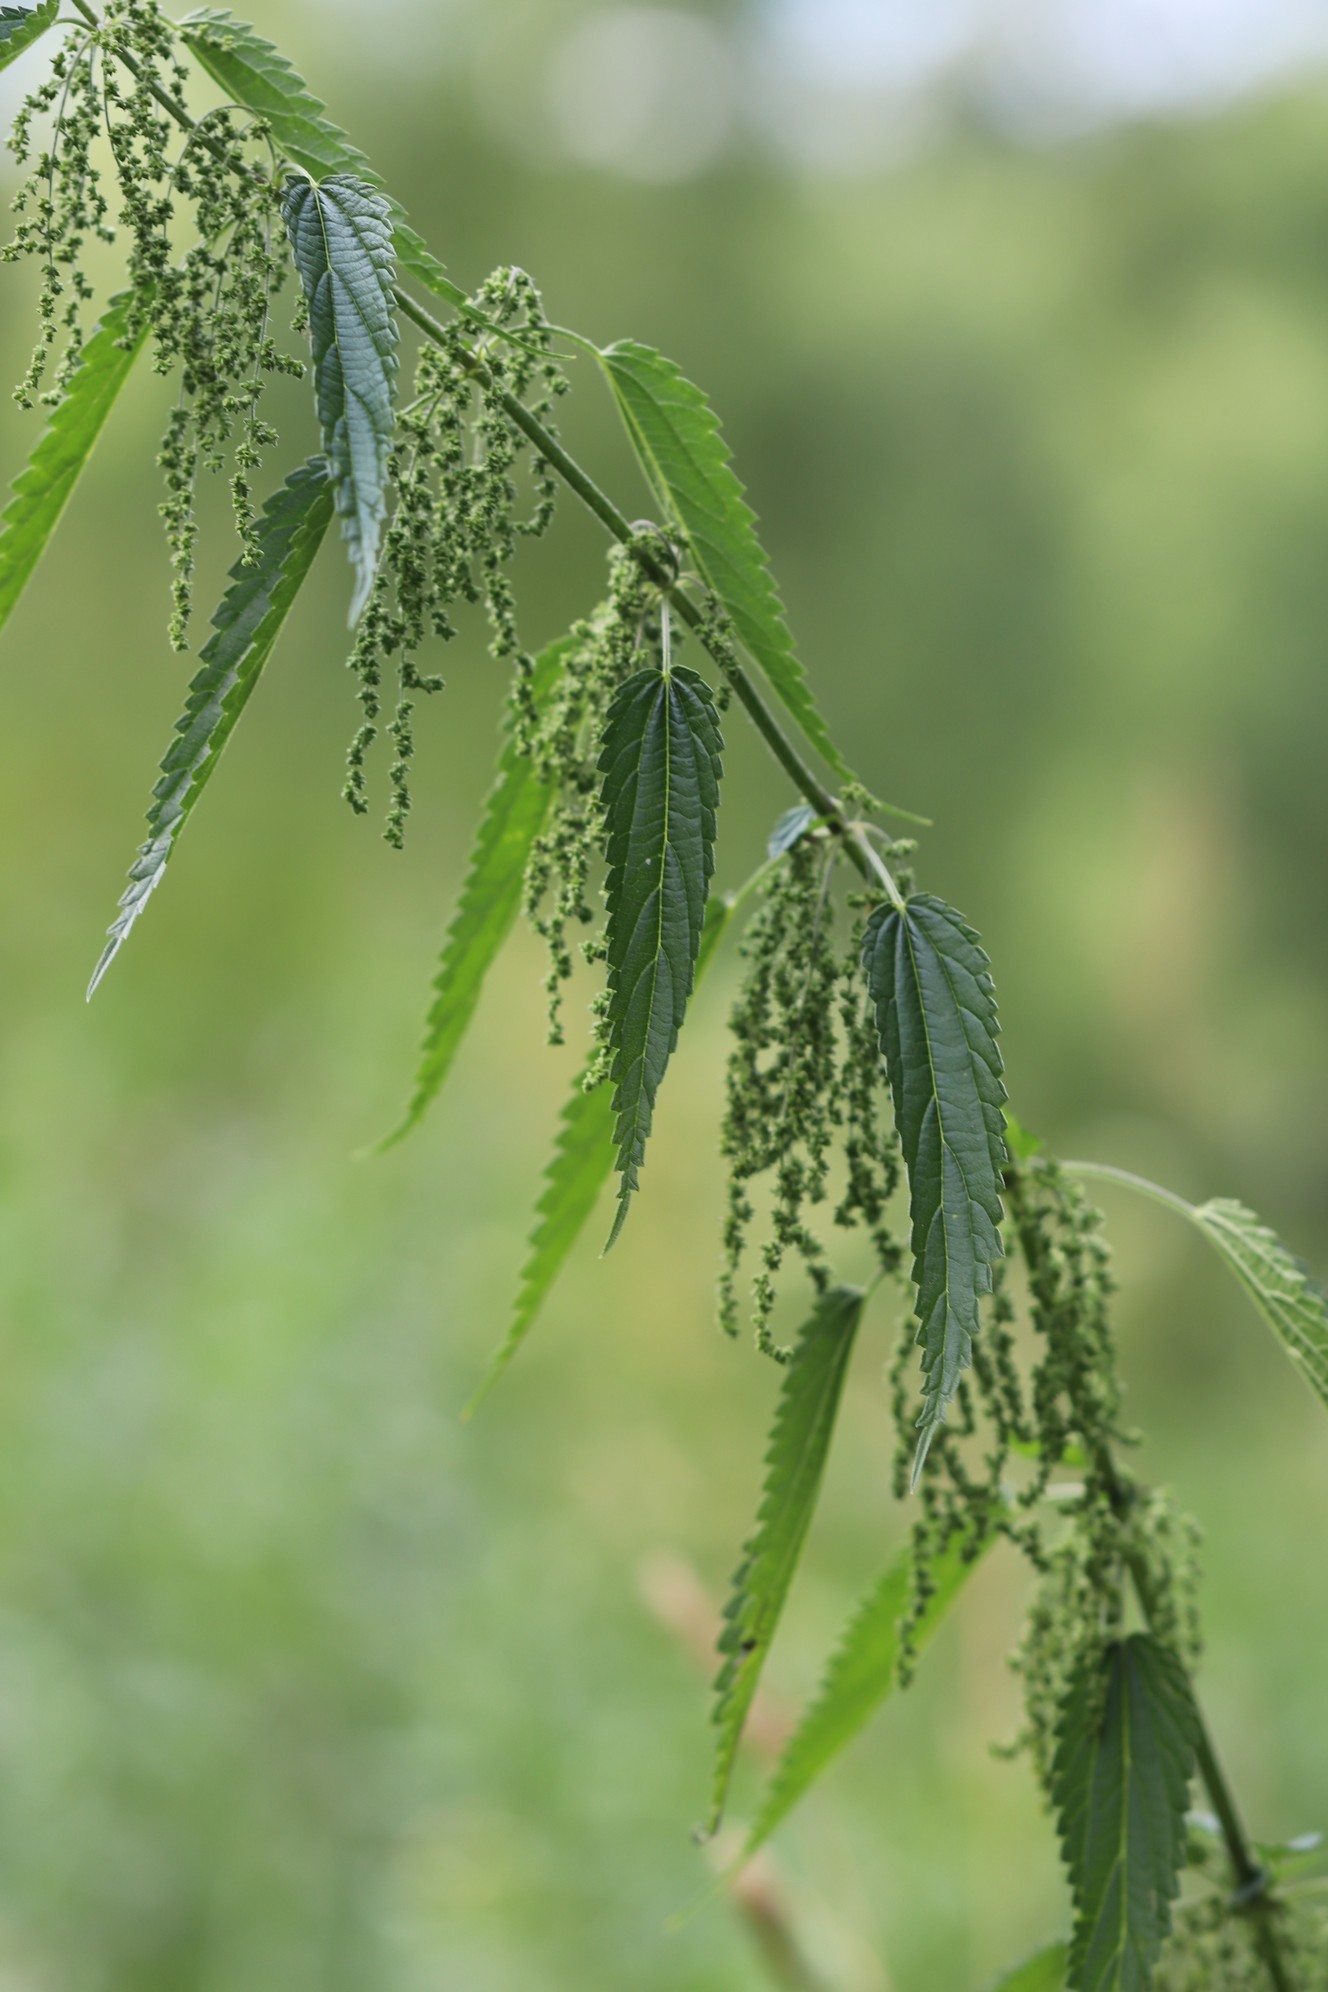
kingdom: Plantae
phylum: Tracheophyta
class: Magnoliopsida
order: Rosales
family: Urticaceae
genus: Urtica
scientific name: Urtica dioica
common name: Common nettle
